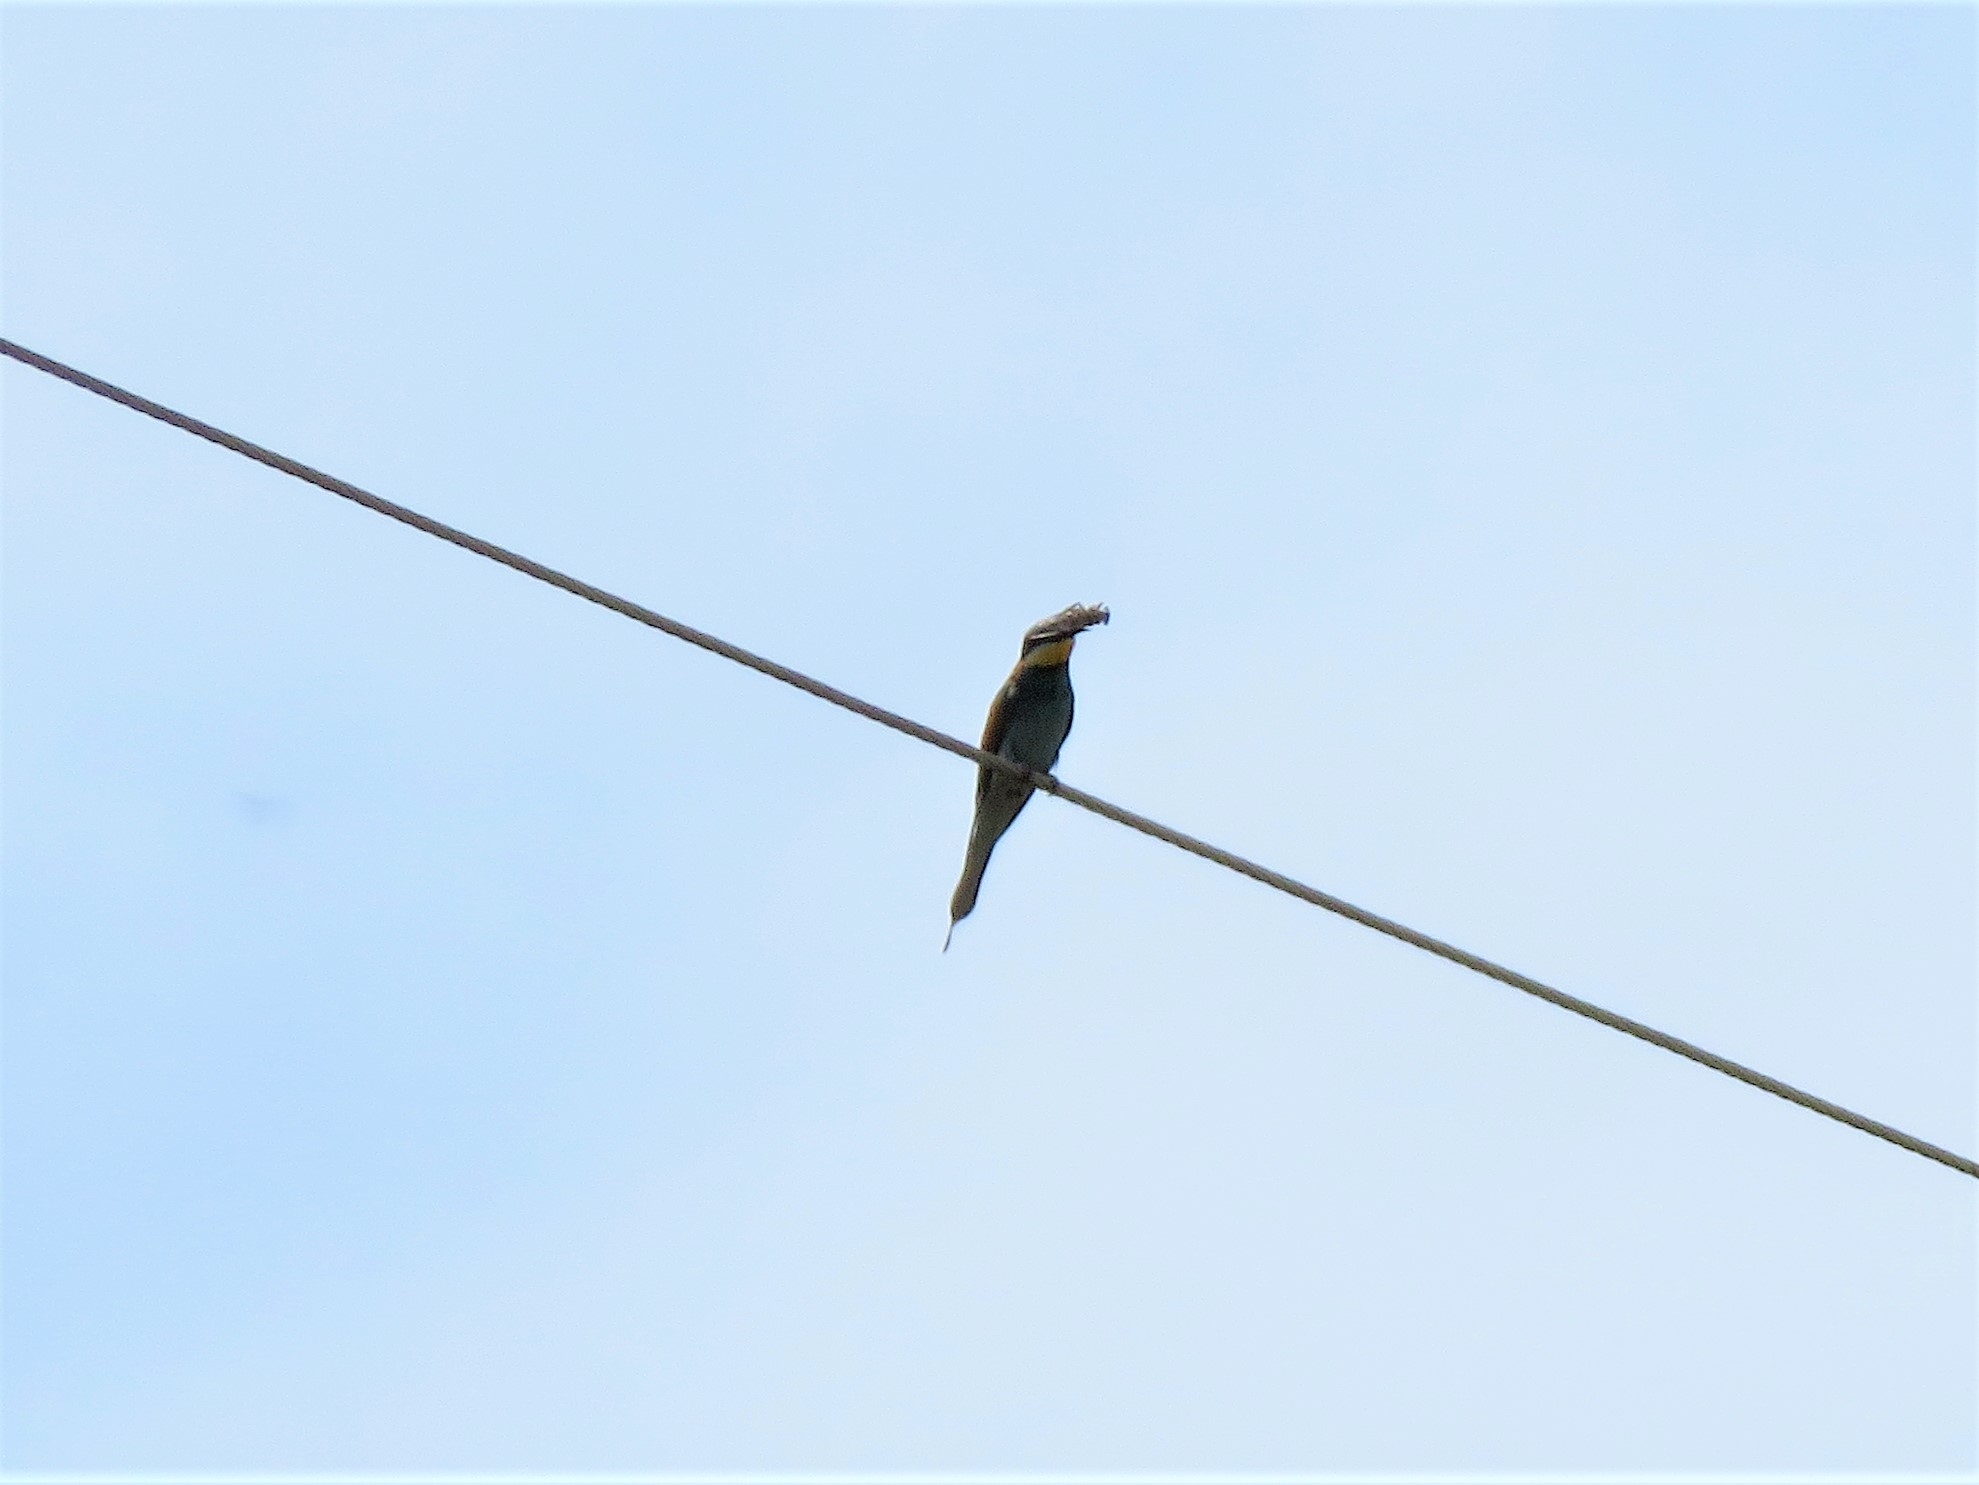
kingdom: Animalia
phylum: Chordata
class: Aves
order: Coraciiformes
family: Meropidae
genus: Merops
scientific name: Merops apiaster
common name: European bee-eater
